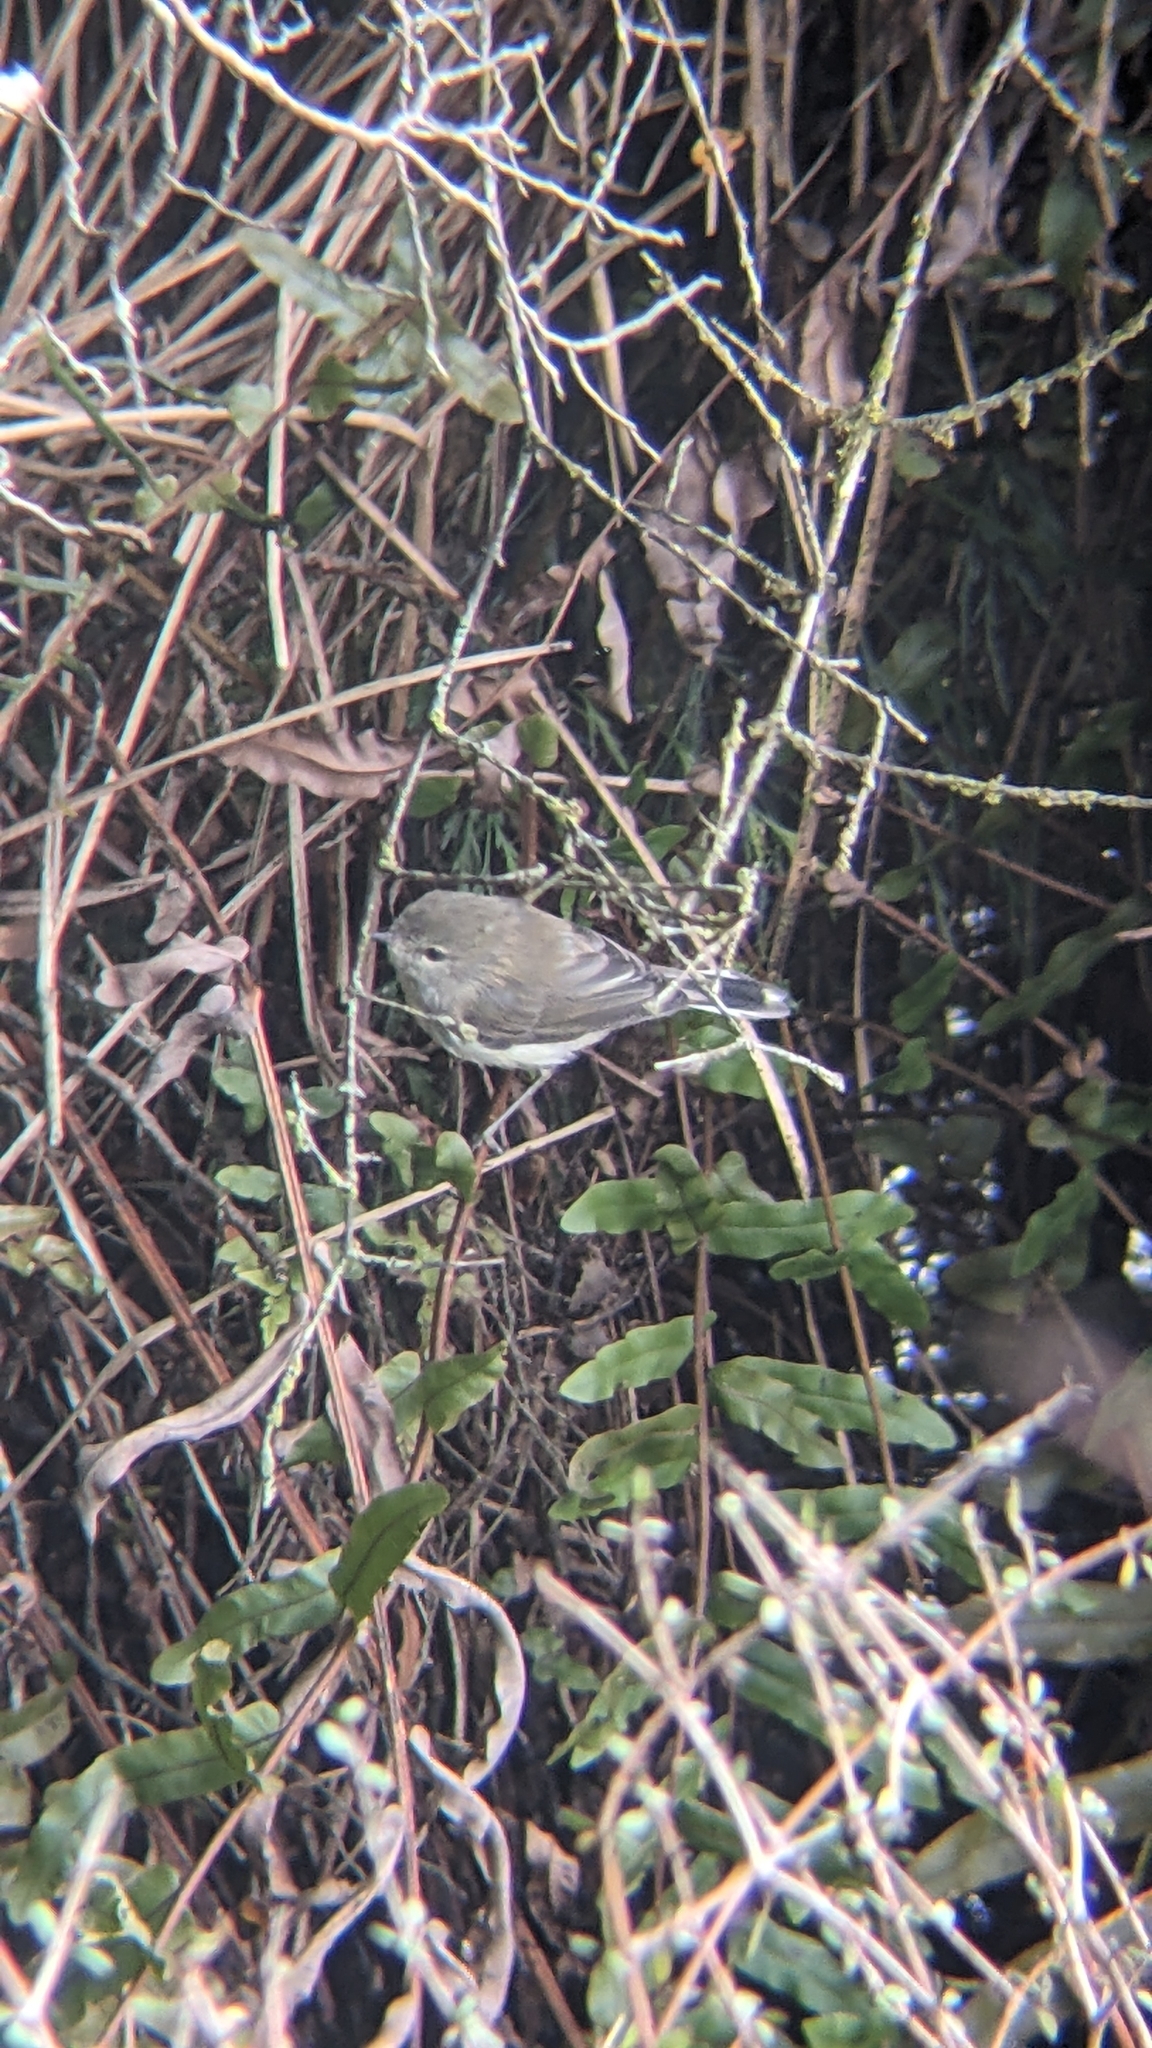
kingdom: Animalia
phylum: Chordata
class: Aves
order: Passeriformes
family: Acanthizidae
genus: Gerygone
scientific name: Gerygone igata
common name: Grey gerygone
